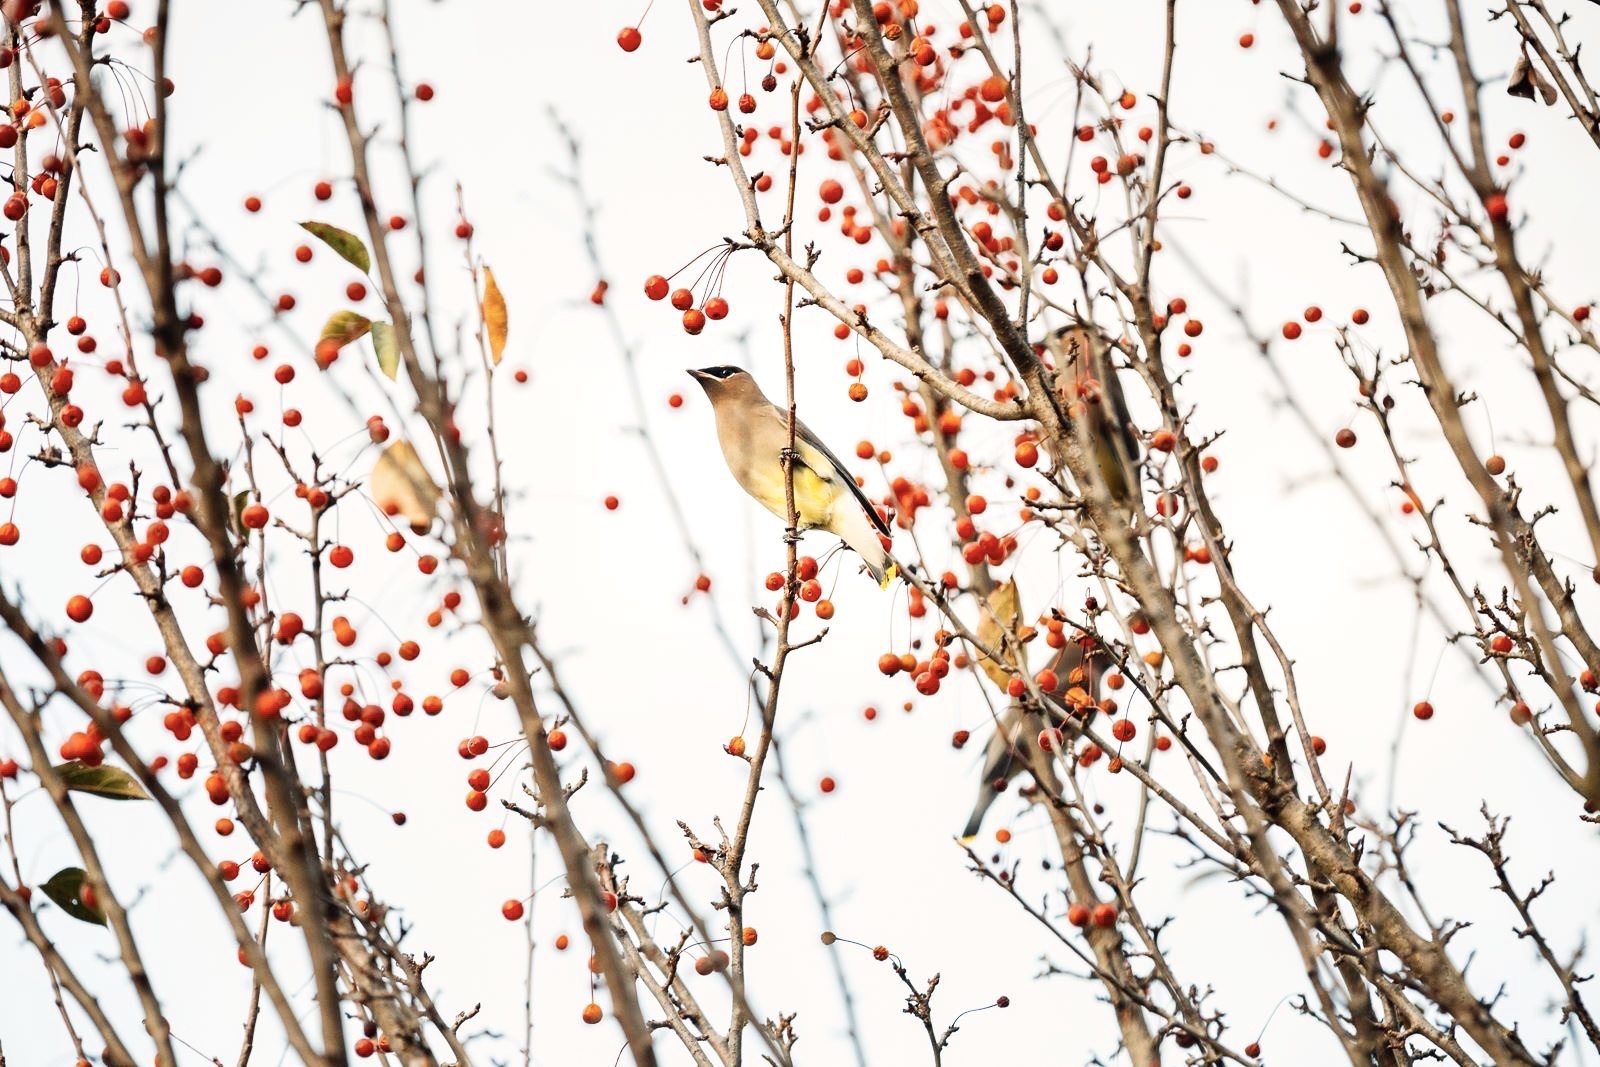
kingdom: Animalia
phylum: Chordata
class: Aves
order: Passeriformes
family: Bombycillidae
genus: Bombycilla
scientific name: Bombycilla cedrorum
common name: Cedar waxwing
